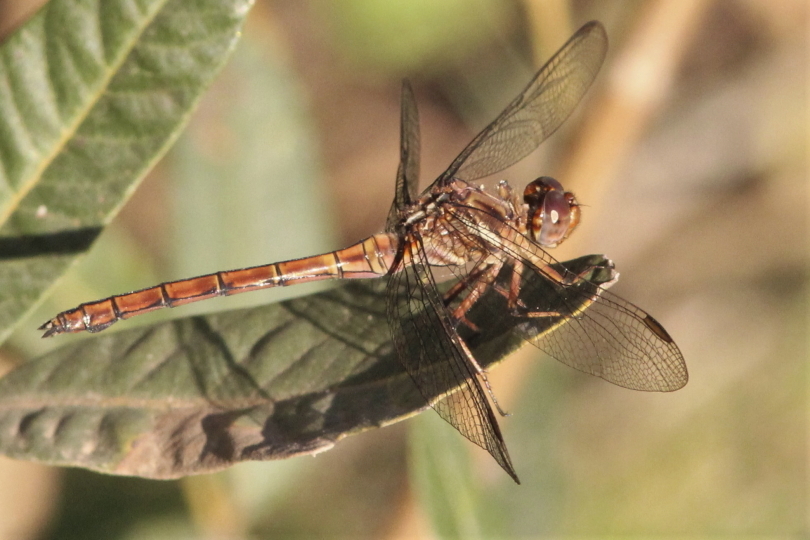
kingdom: Animalia
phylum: Arthropoda
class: Insecta
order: Odonata
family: Libellulidae
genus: Orthetrum
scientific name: Orthetrum julia
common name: Julia skimmer
